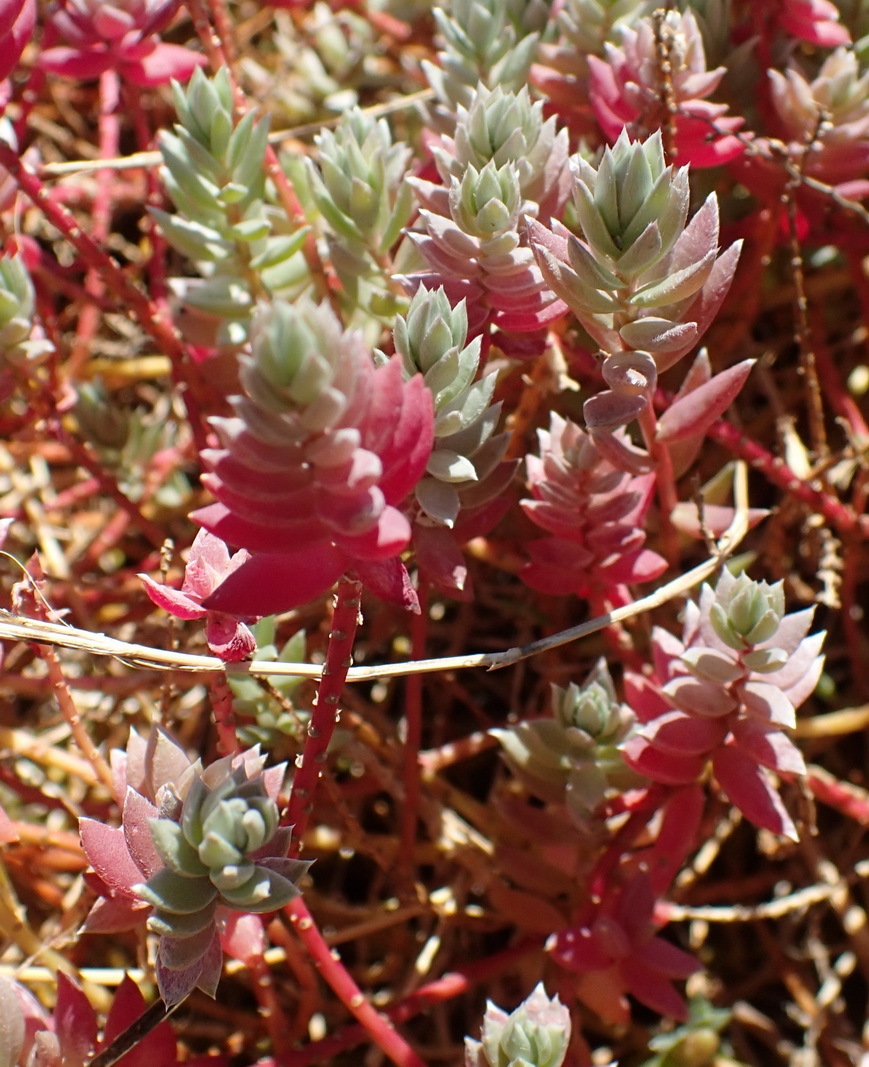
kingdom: Plantae
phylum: Tracheophyta
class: Magnoliopsida
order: Caryophyllales
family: Amaranthaceae
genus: Chenolea
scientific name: Chenolea diffusa
